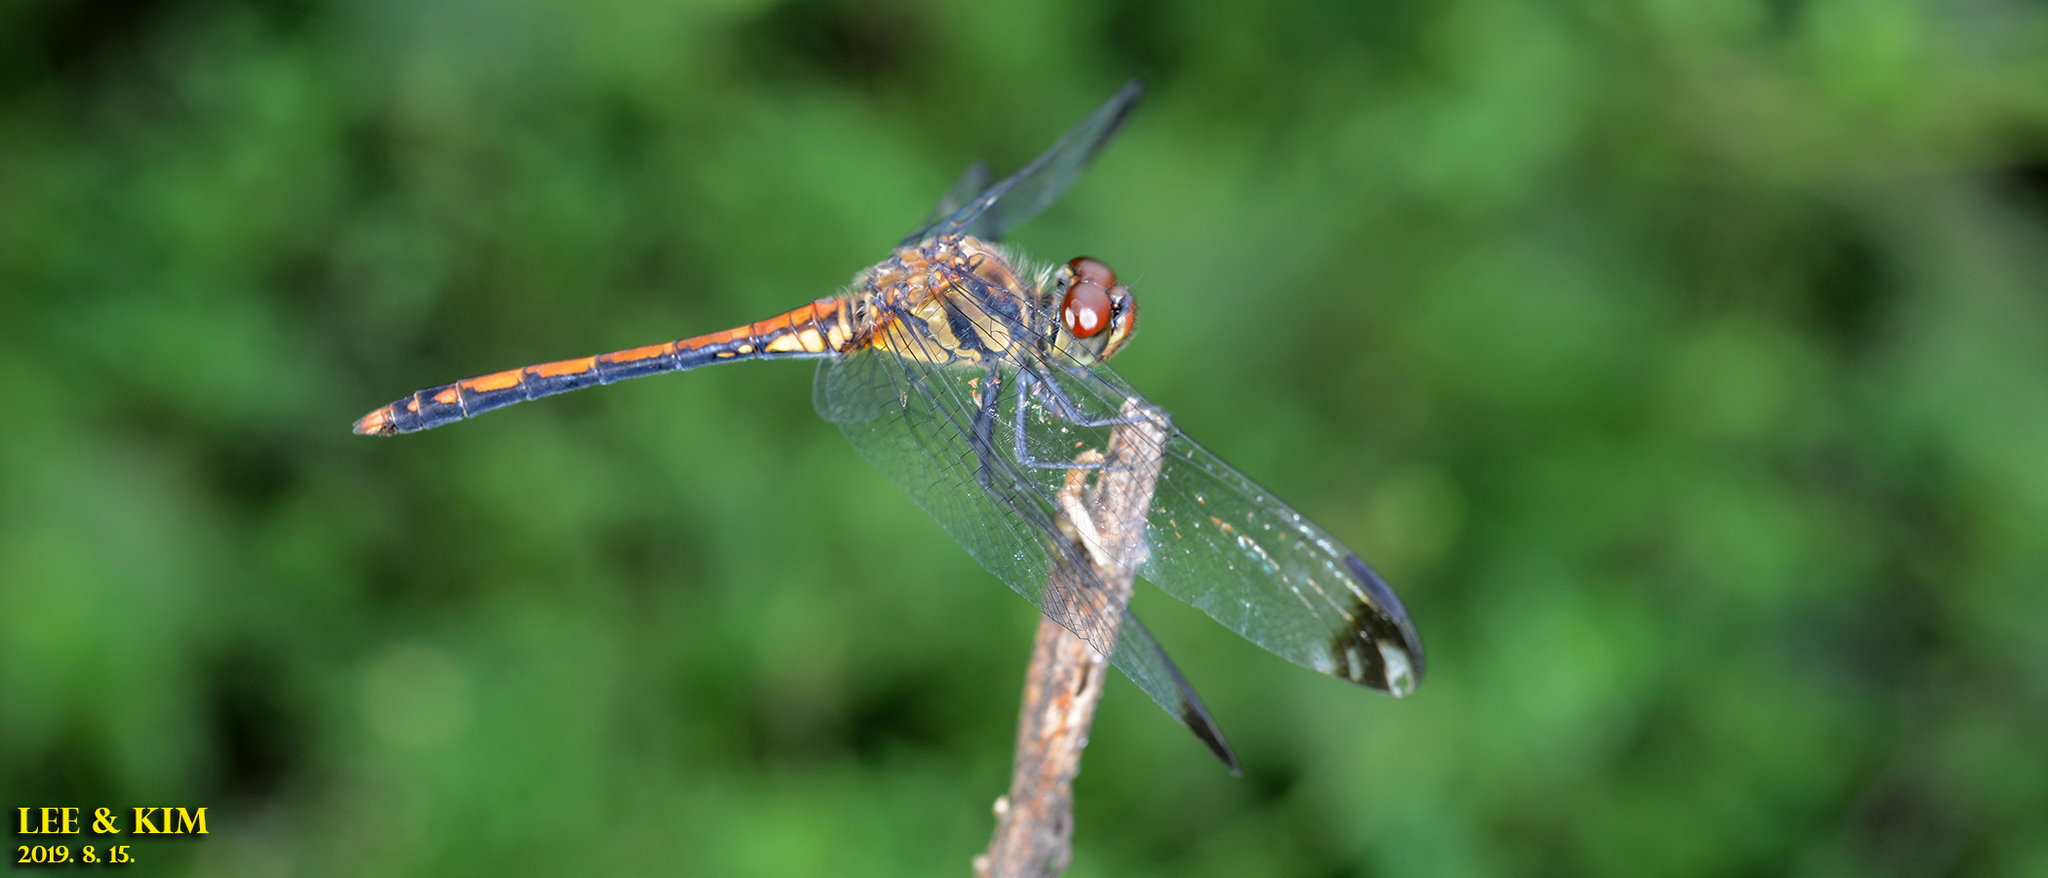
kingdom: Animalia
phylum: Arthropoda
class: Insecta
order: Odonata
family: Libellulidae
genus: Sympetrum
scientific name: Sympetrum infuscatum
